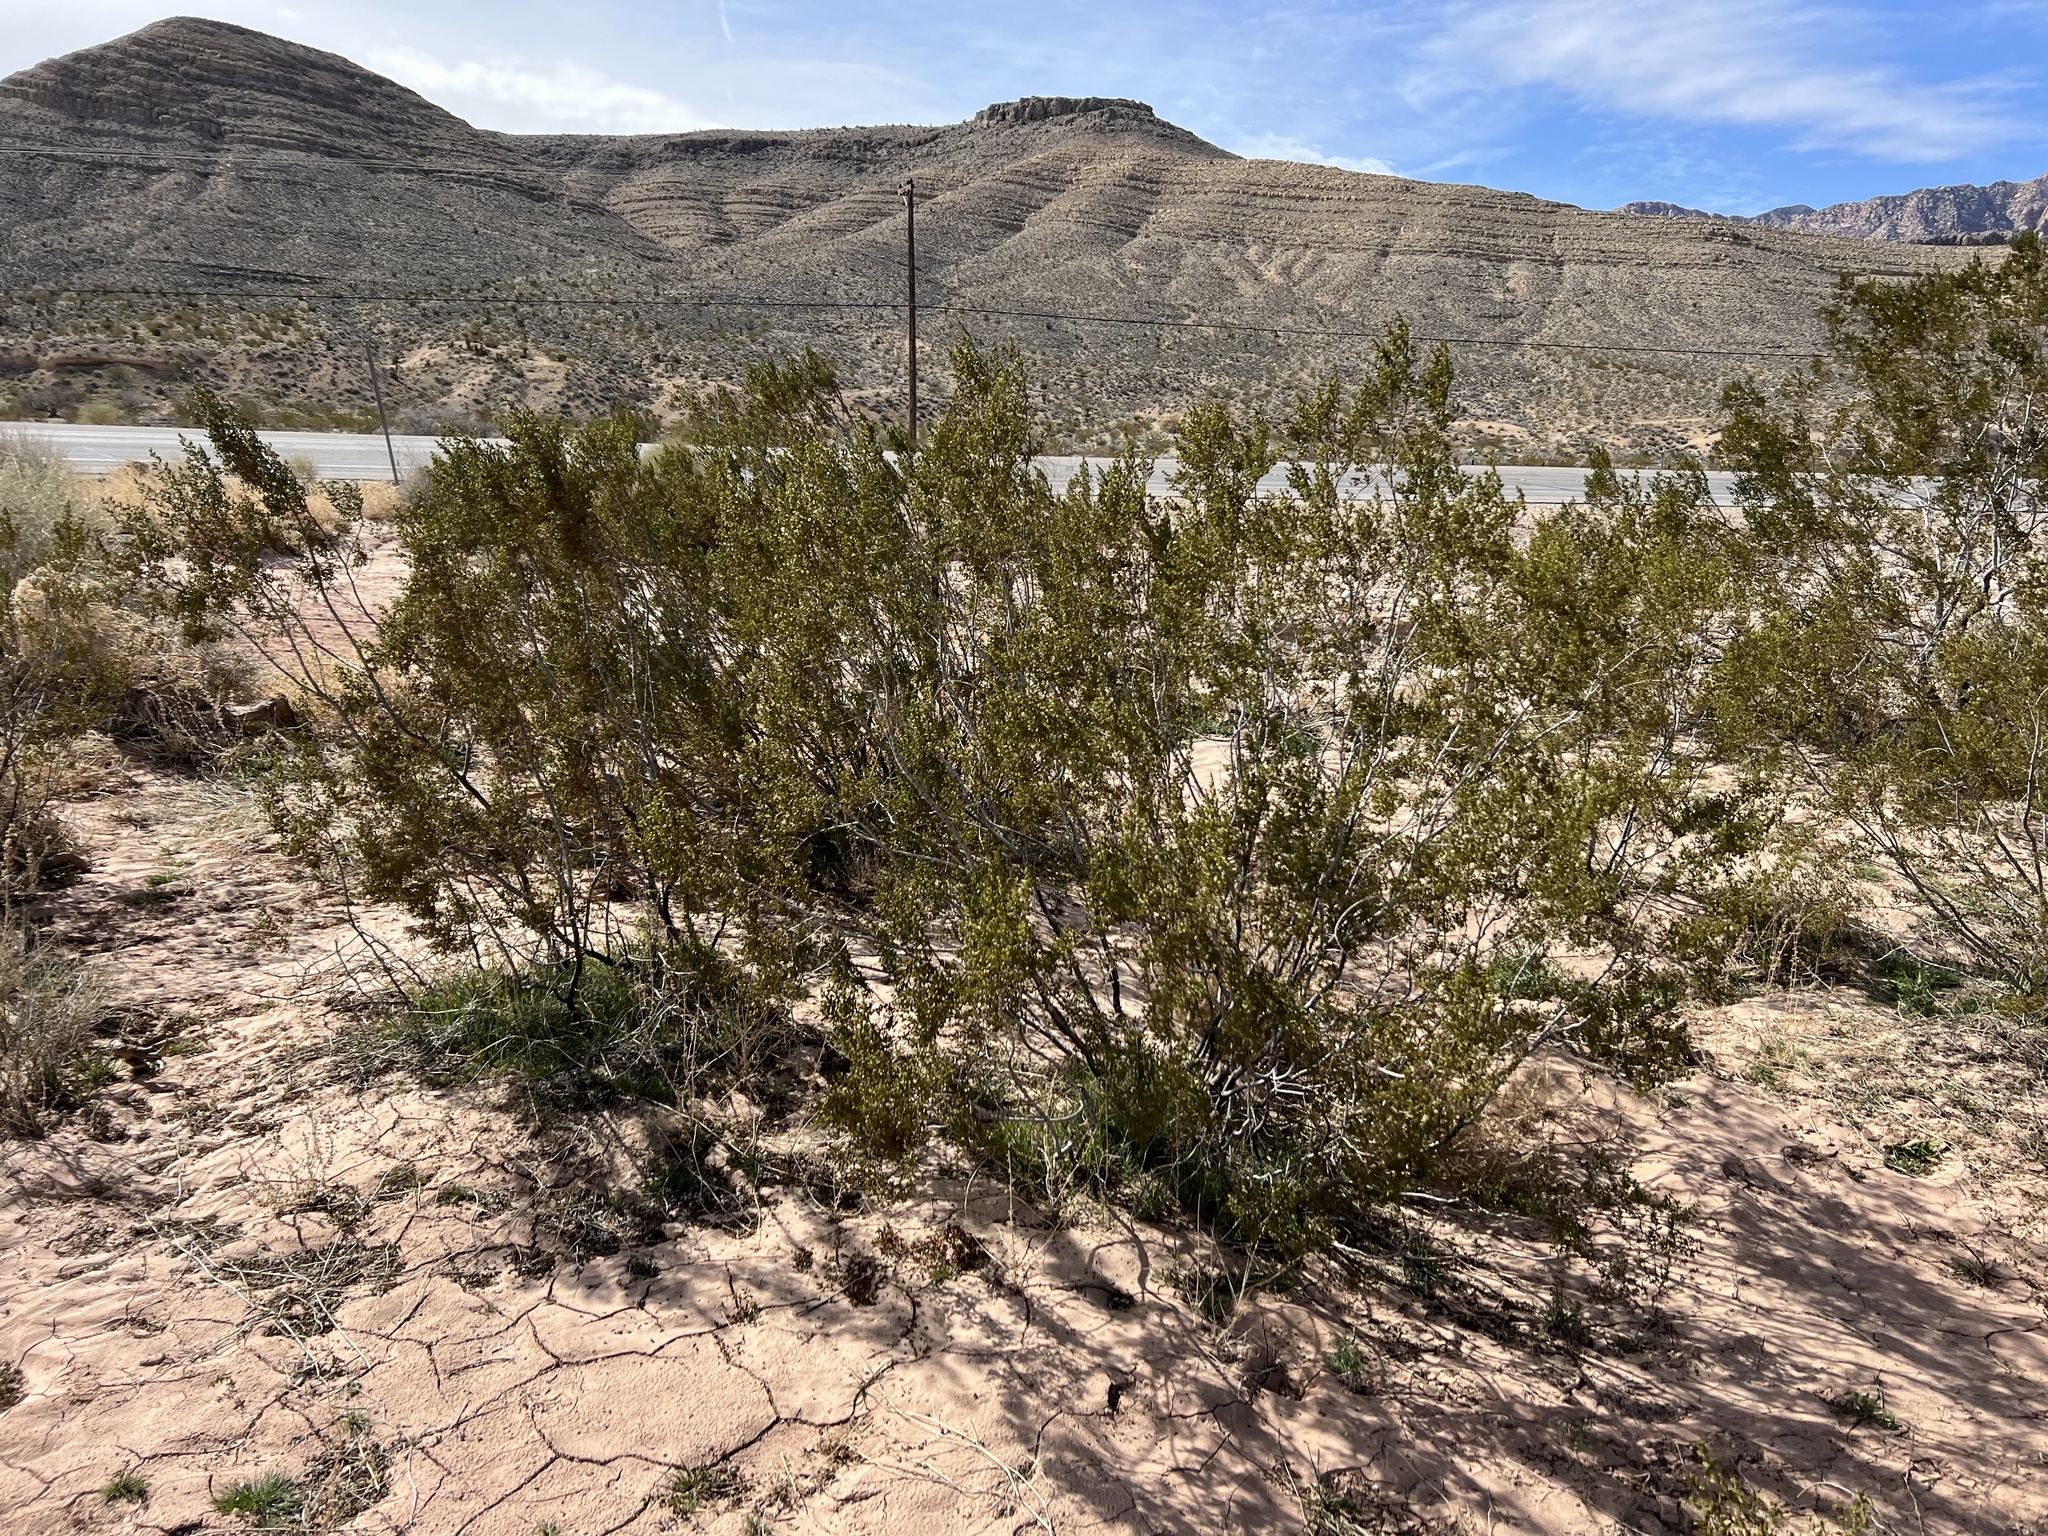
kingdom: Plantae
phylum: Tracheophyta
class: Magnoliopsida
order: Zygophyllales
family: Zygophyllaceae
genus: Larrea
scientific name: Larrea tridentata
